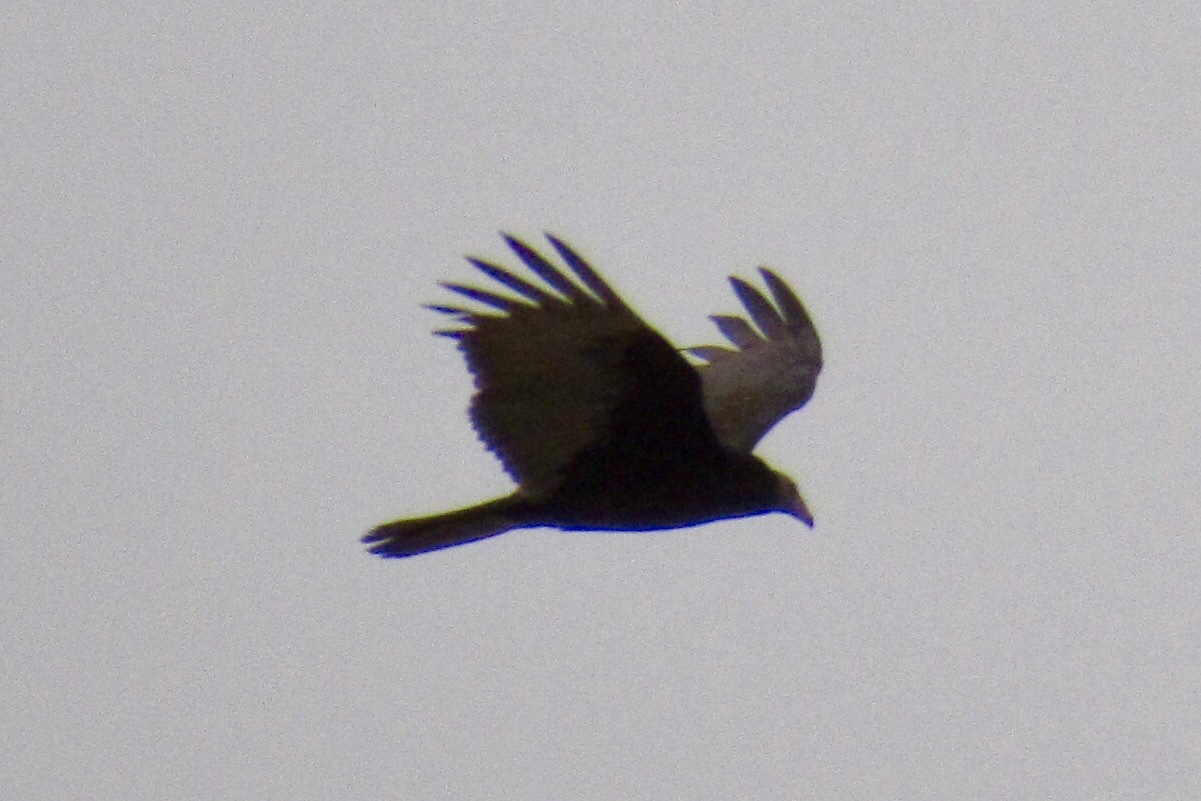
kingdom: Animalia
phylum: Chordata
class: Aves
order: Accipitriformes
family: Cathartidae
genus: Cathartes
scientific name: Cathartes aura
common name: Turkey vulture
